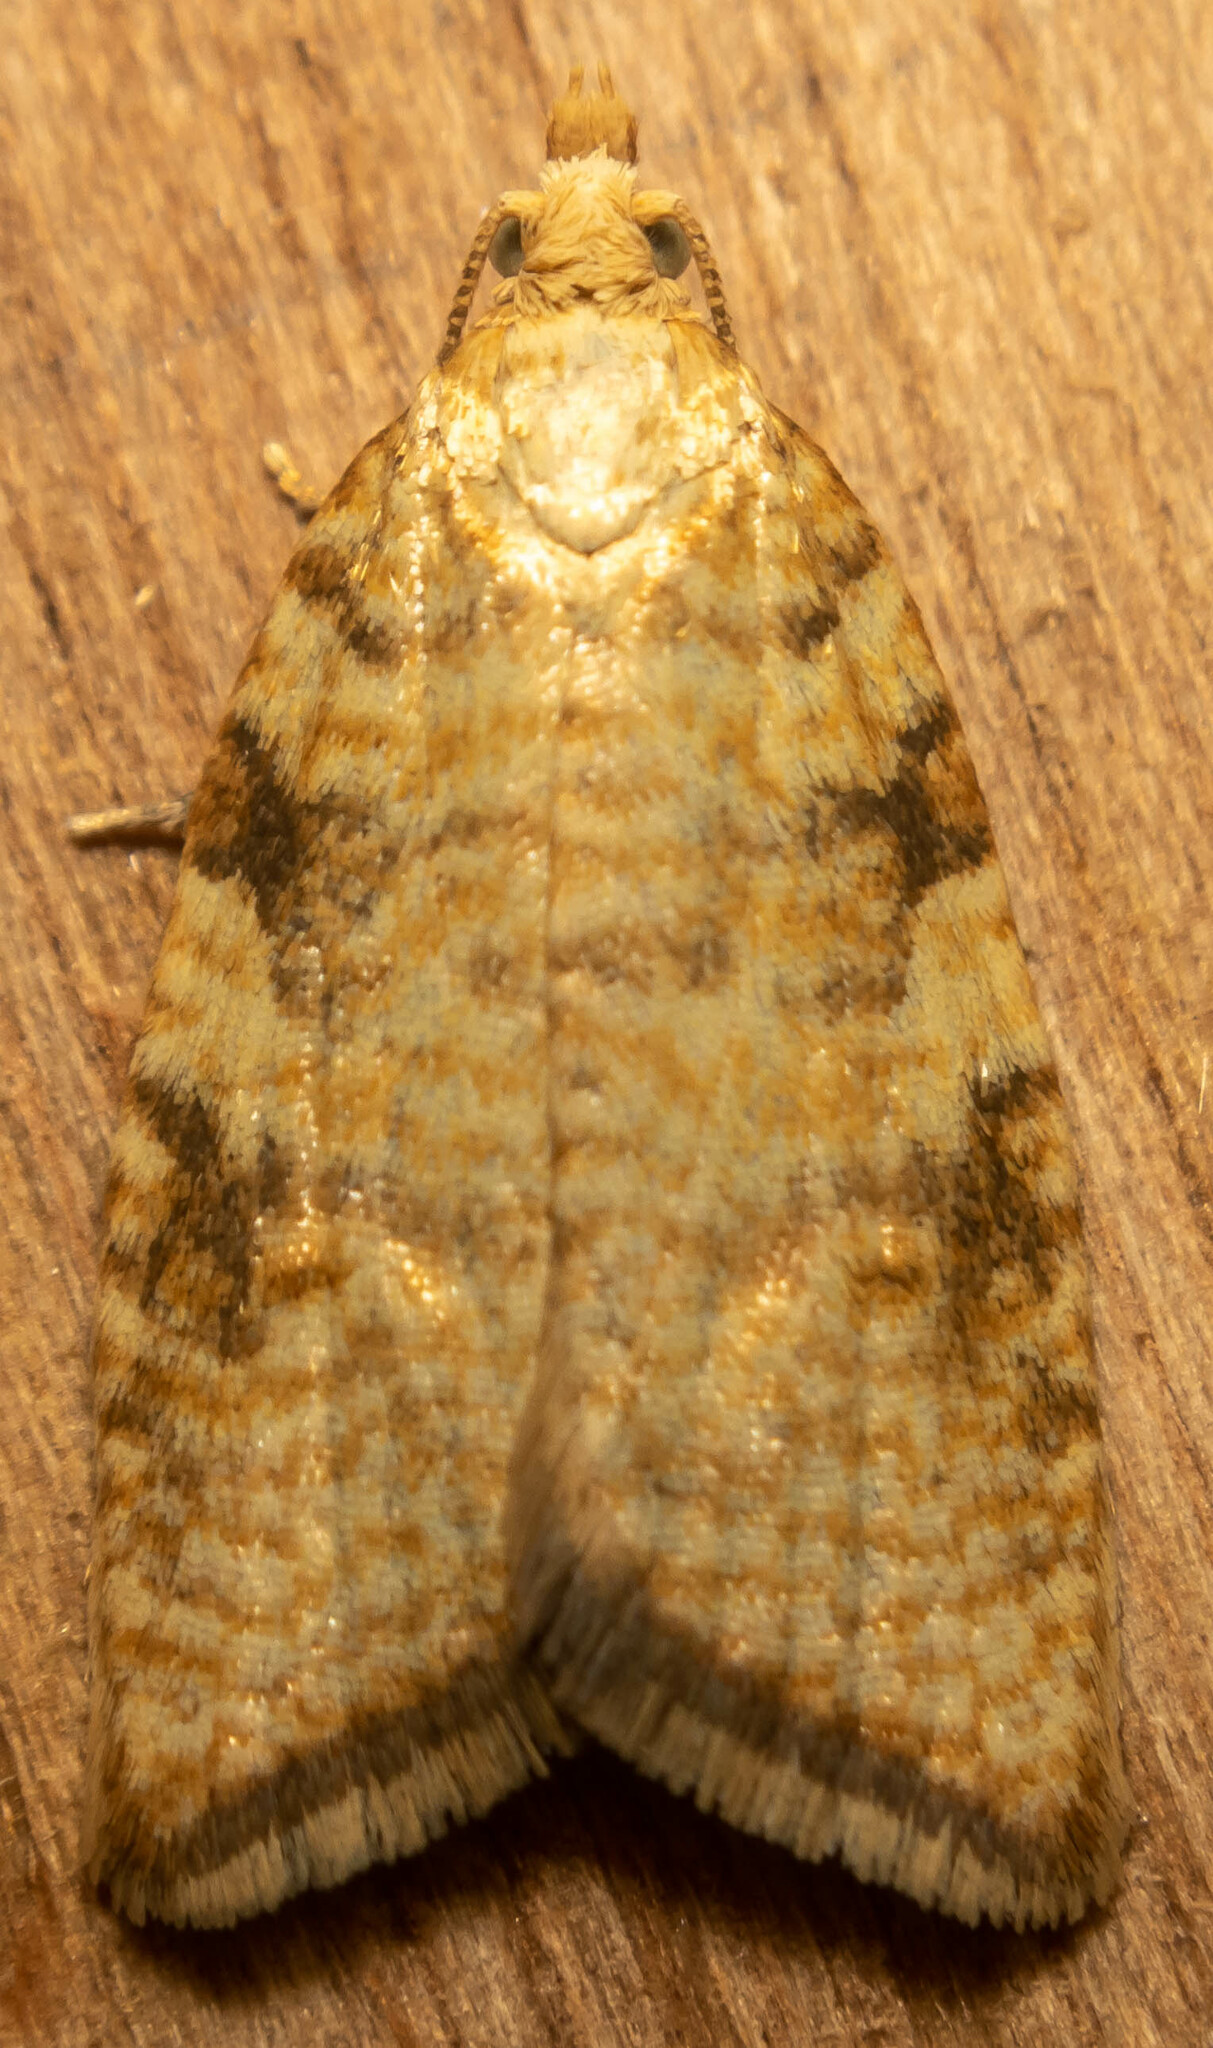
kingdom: Animalia
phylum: Arthropoda
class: Insecta
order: Lepidoptera
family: Tortricidae
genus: Aleimma
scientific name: Aleimma loeflingiana
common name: Yellow oak button
